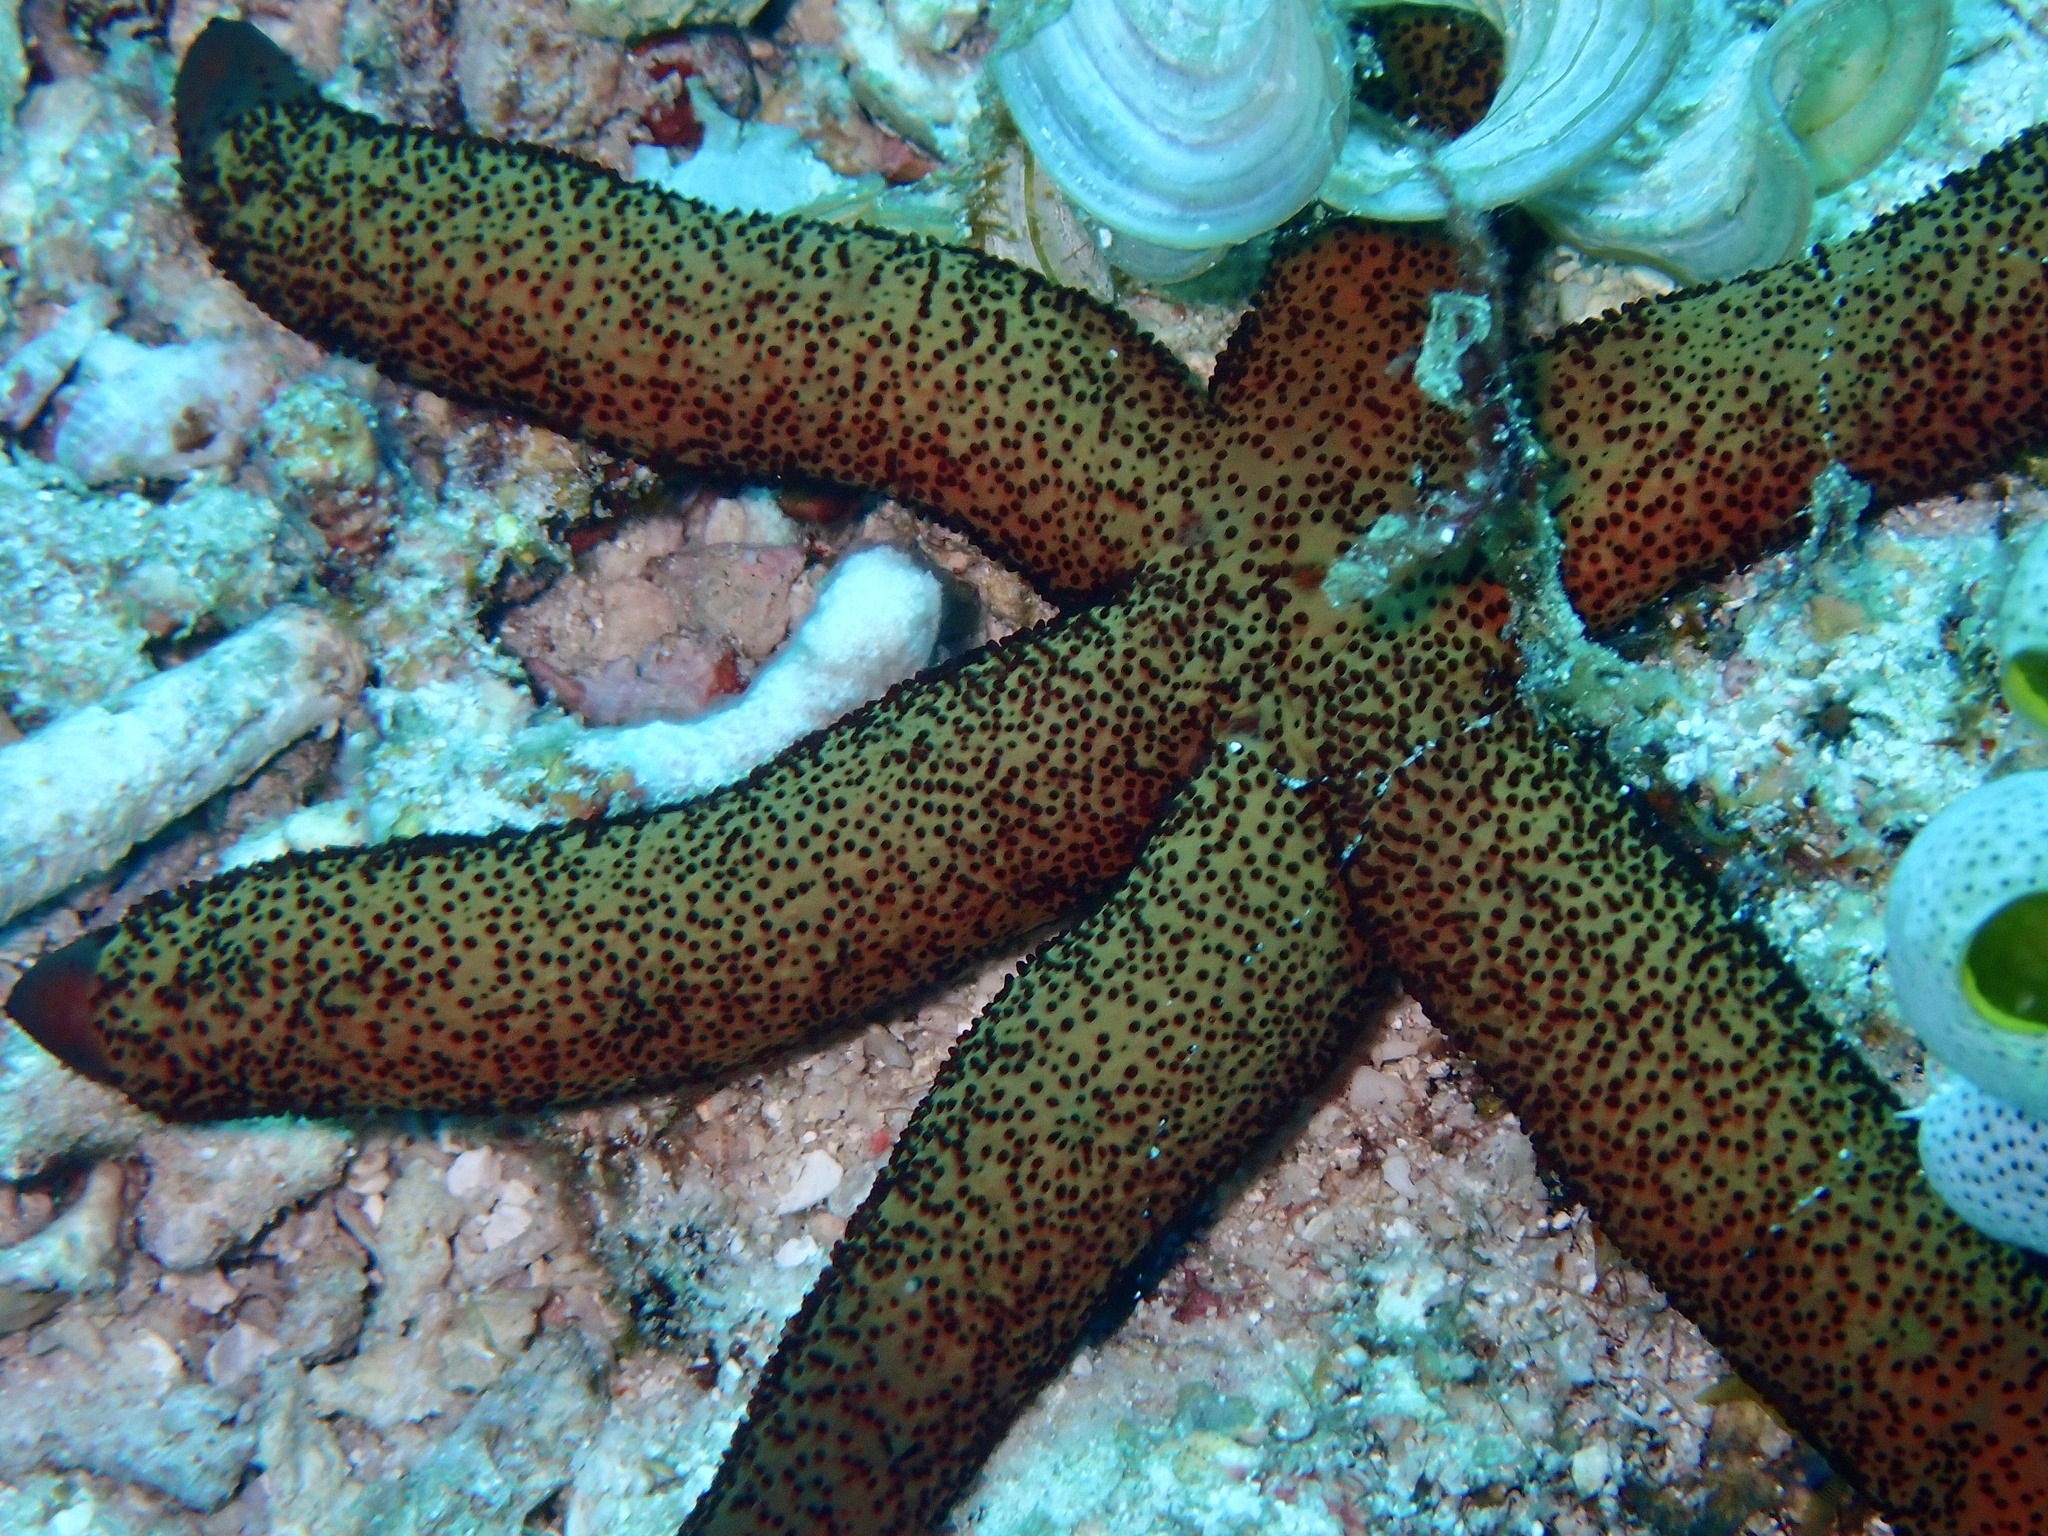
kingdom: Animalia
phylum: Echinodermata
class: Asteroidea
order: Spinulosida
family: Echinasteridae
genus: Echinaster
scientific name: Echinaster luzonicus
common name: Luzon seastar
